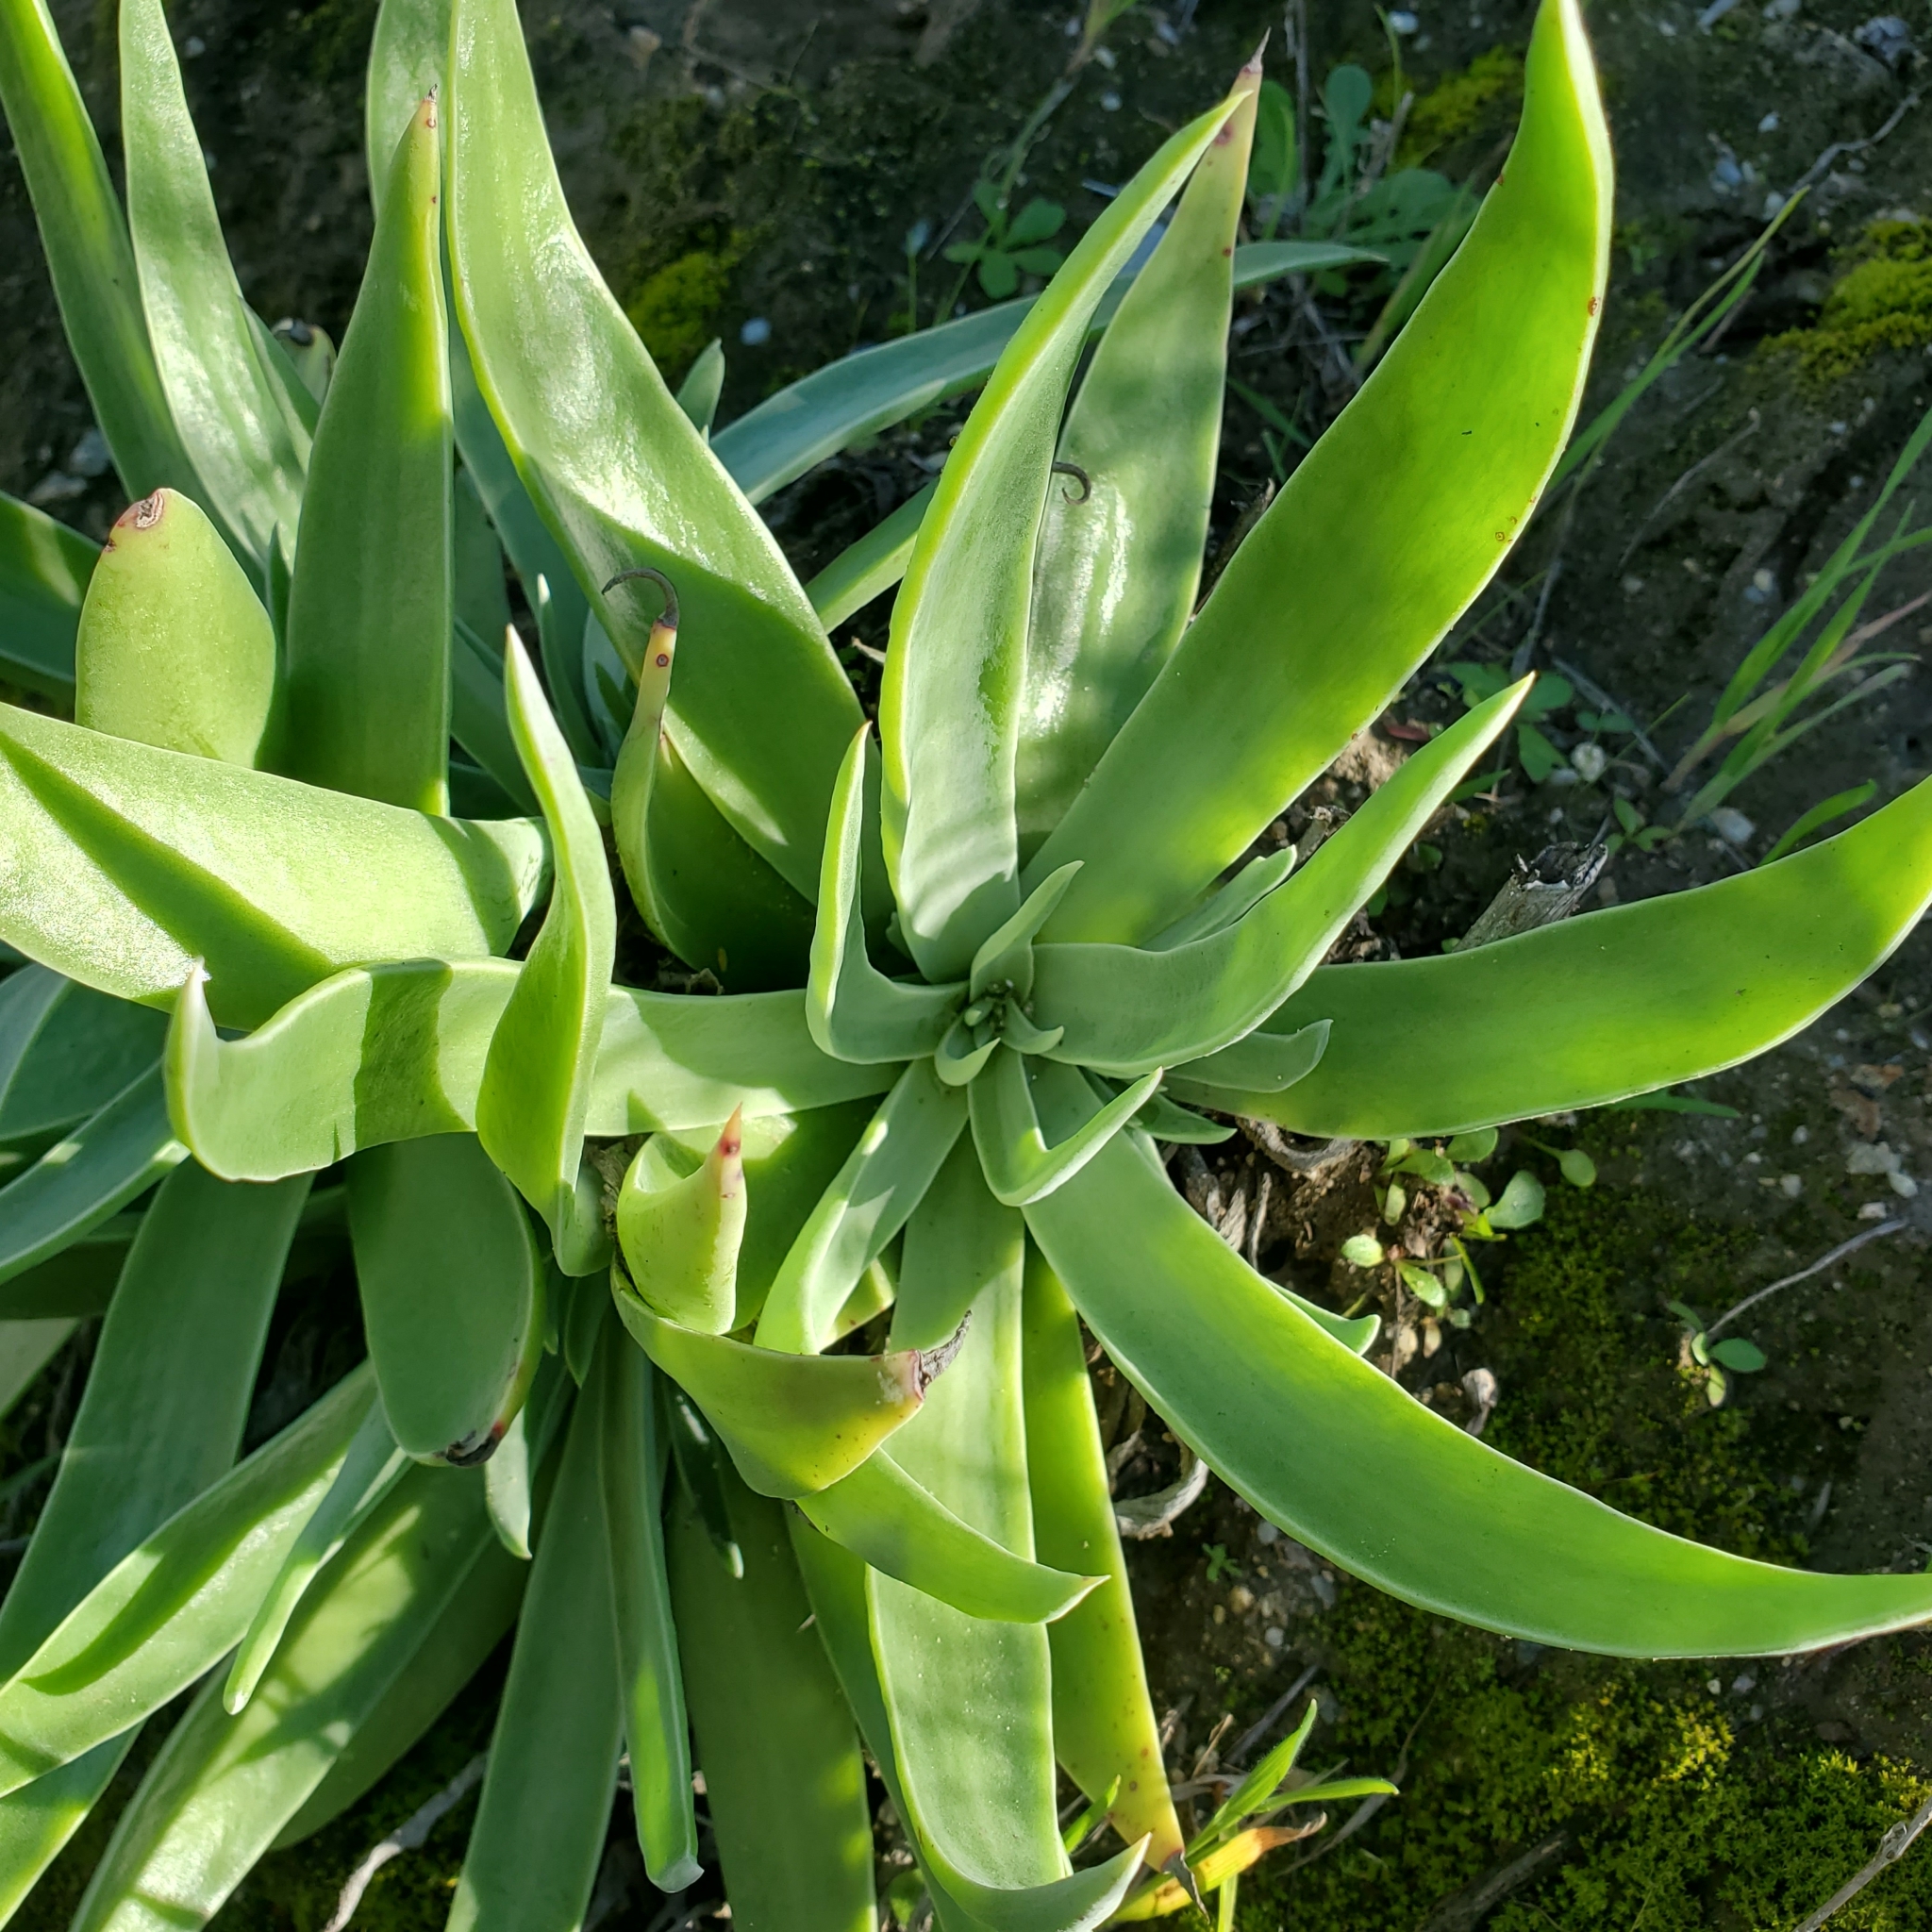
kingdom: Plantae
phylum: Tracheophyta
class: Magnoliopsida
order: Saxifragales
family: Crassulaceae
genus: Dudleya
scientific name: Dudleya lanceolata
